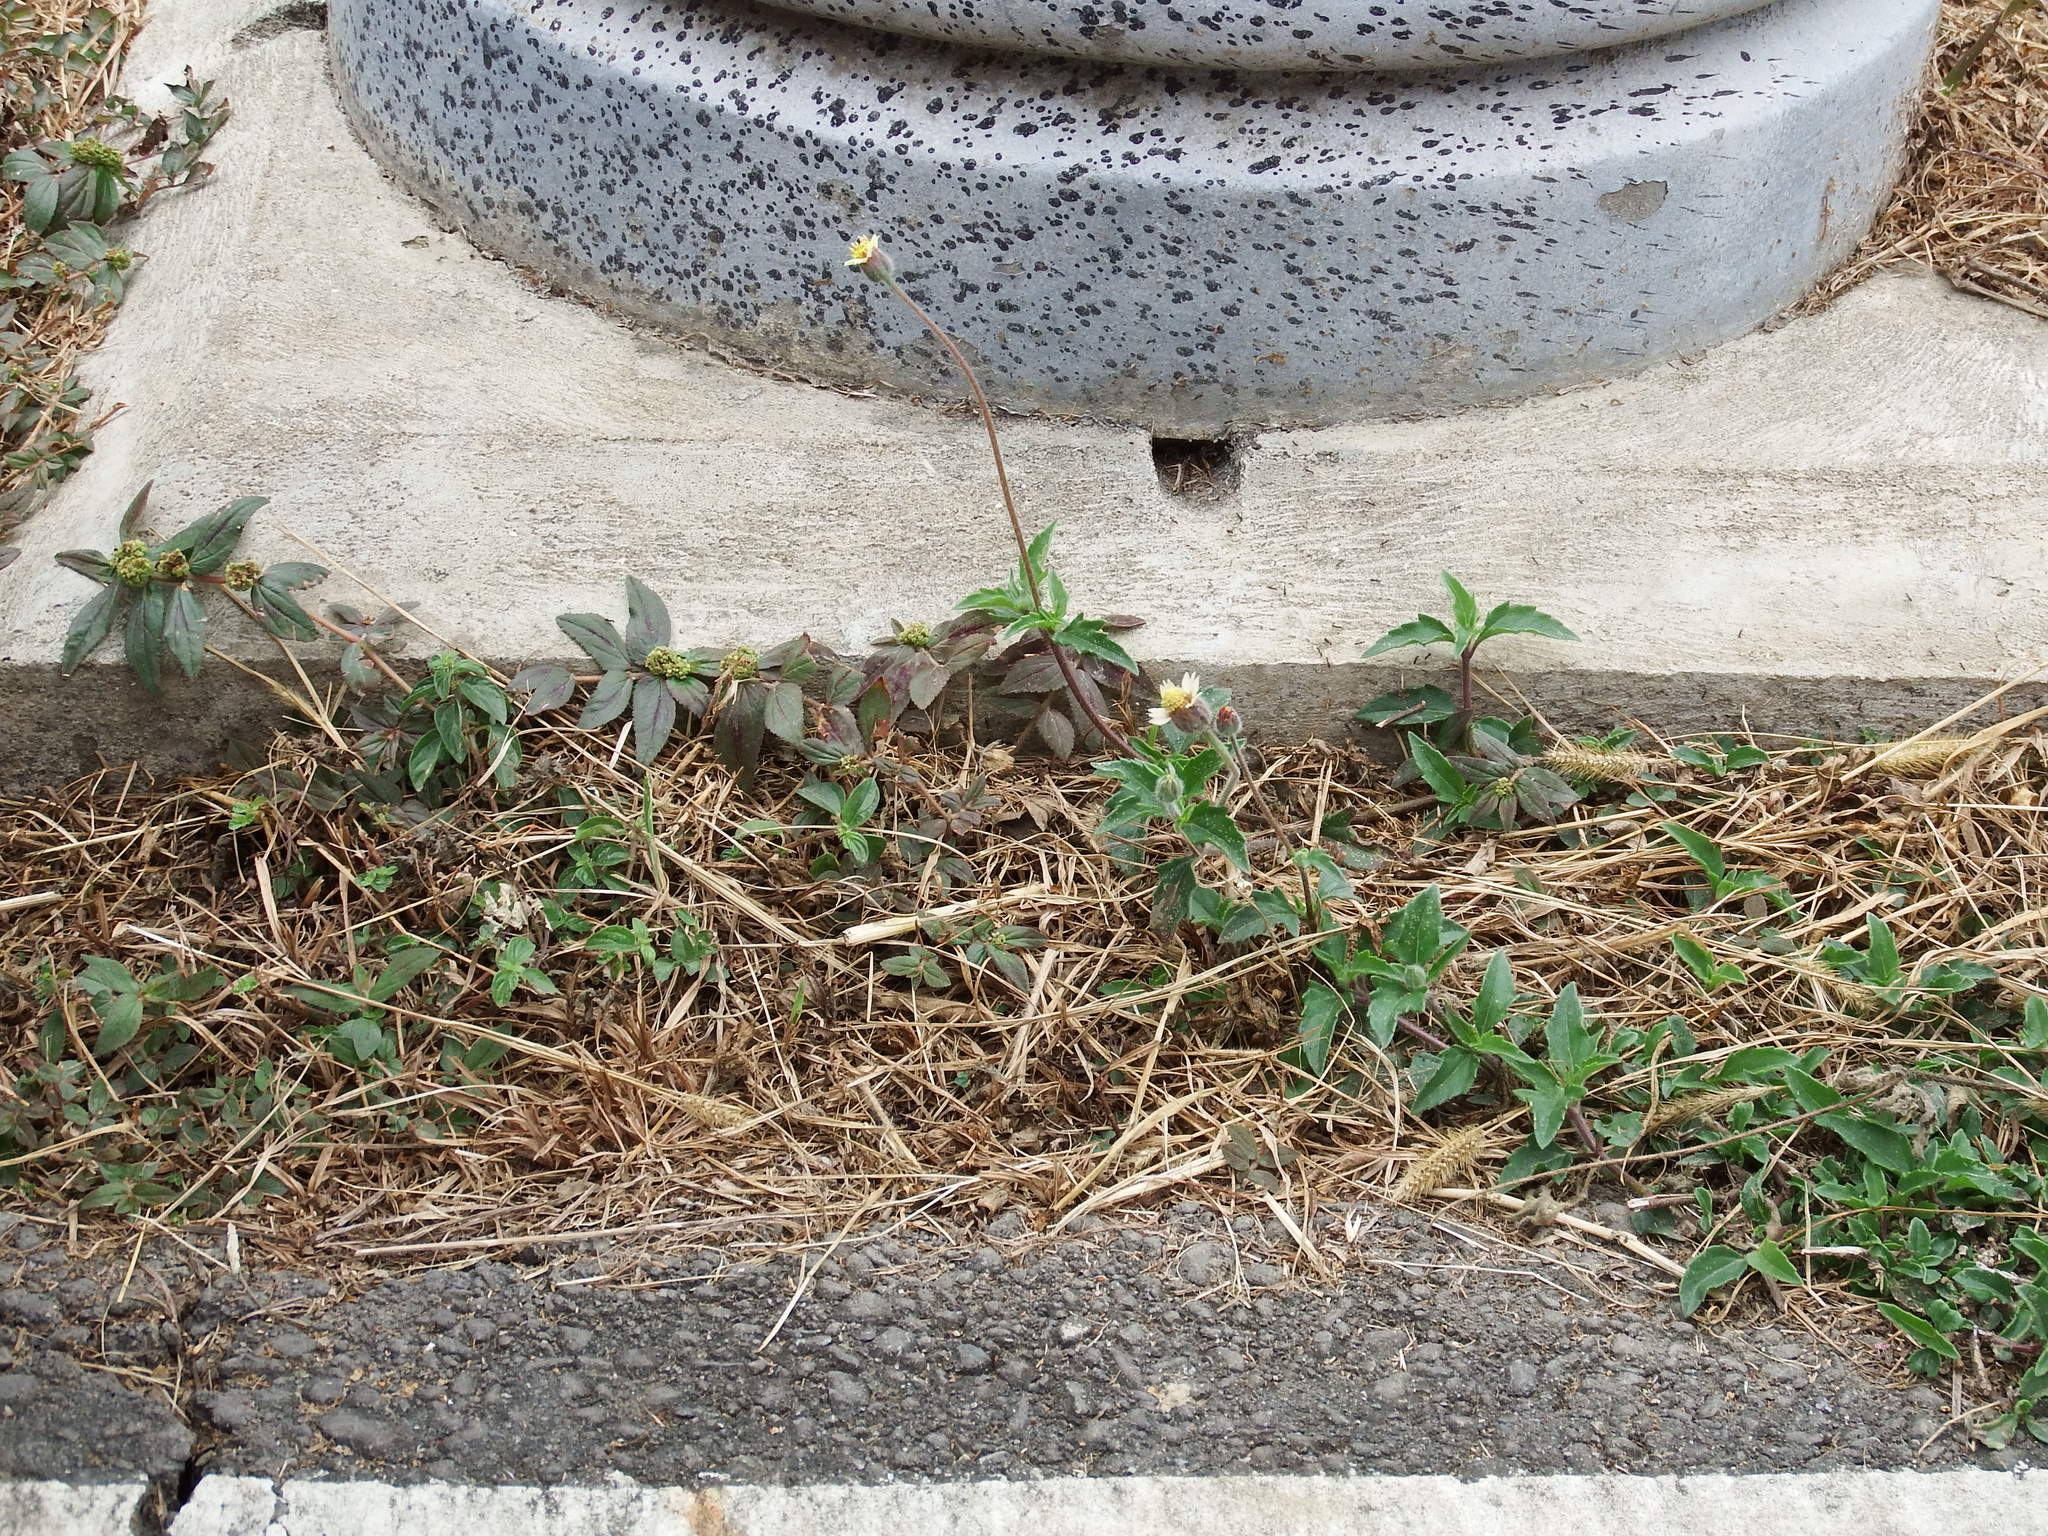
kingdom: Plantae
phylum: Tracheophyta
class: Magnoliopsida
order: Asterales
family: Asteraceae
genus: Tridax
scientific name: Tridax procumbens
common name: Coatbuttons
